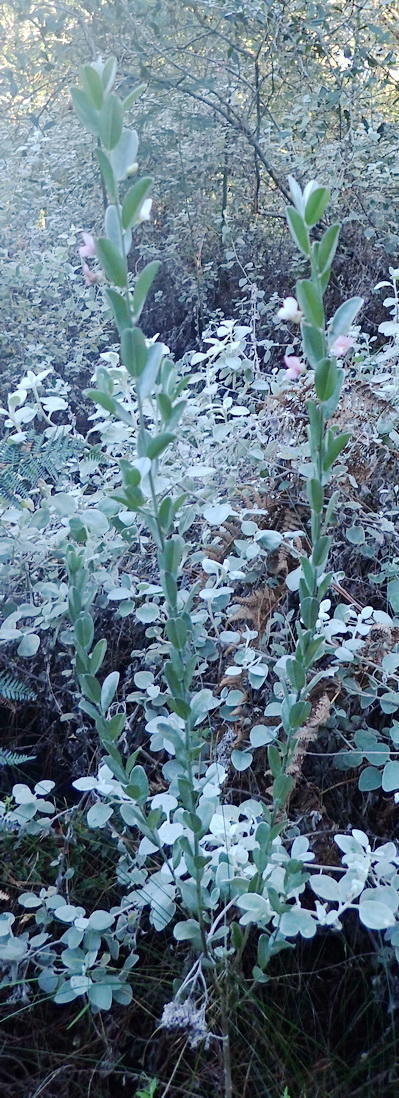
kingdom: Plantae
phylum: Tracheophyta
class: Magnoliopsida
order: Fabales
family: Fabaceae
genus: Podalyria
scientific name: Podalyria myrtillifolia
